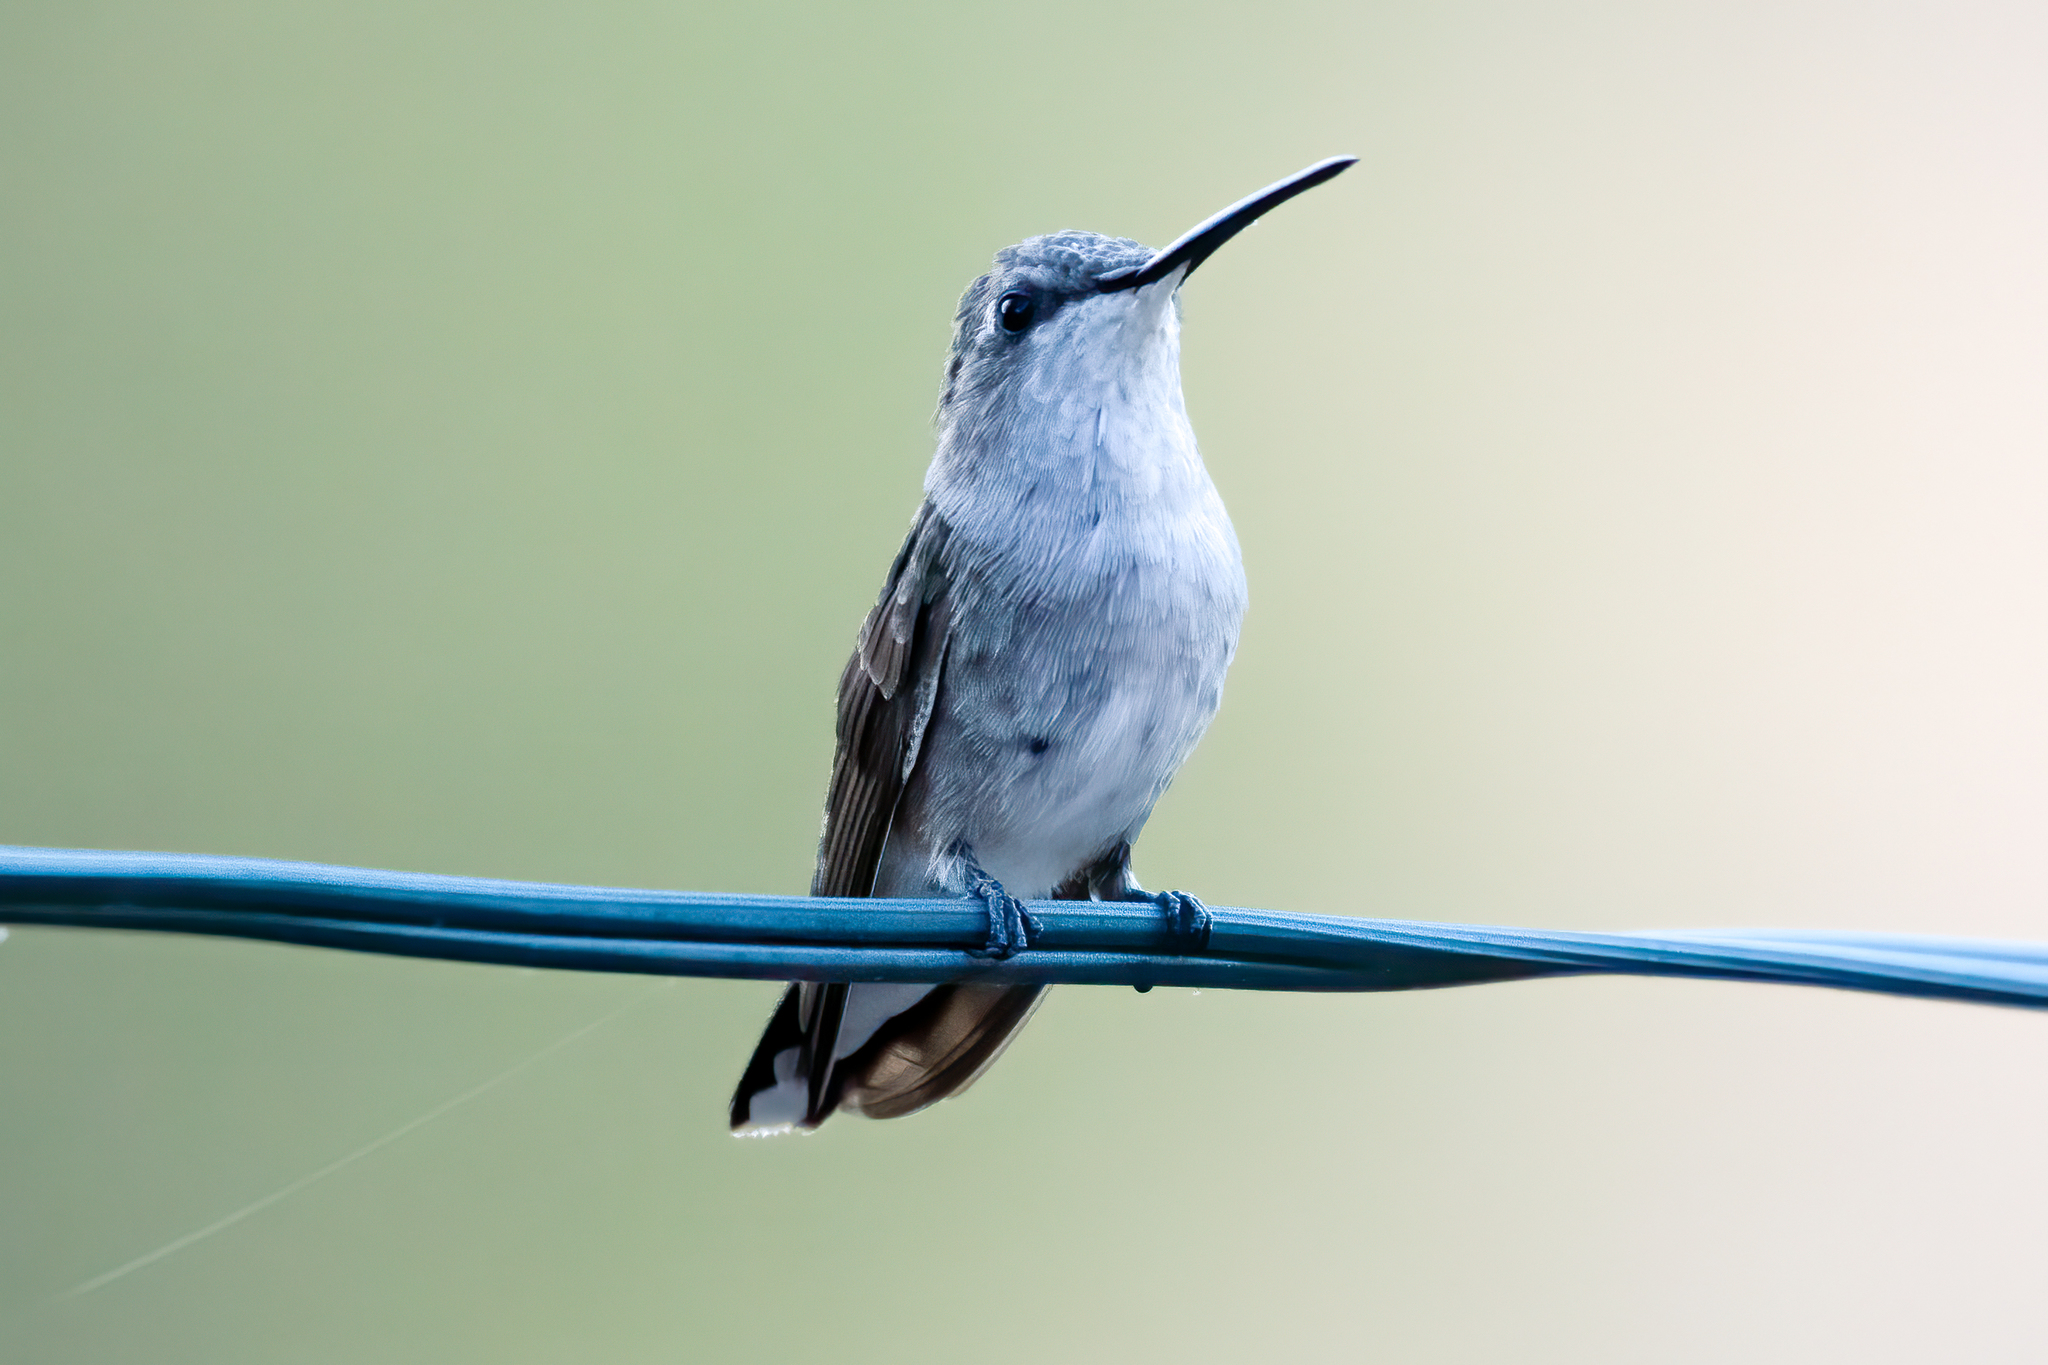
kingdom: Animalia
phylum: Chordata
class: Aves
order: Apodiformes
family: Trochilidae
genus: Archilochus
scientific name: Archilochus alexandri
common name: Black-chinned hummingbird
